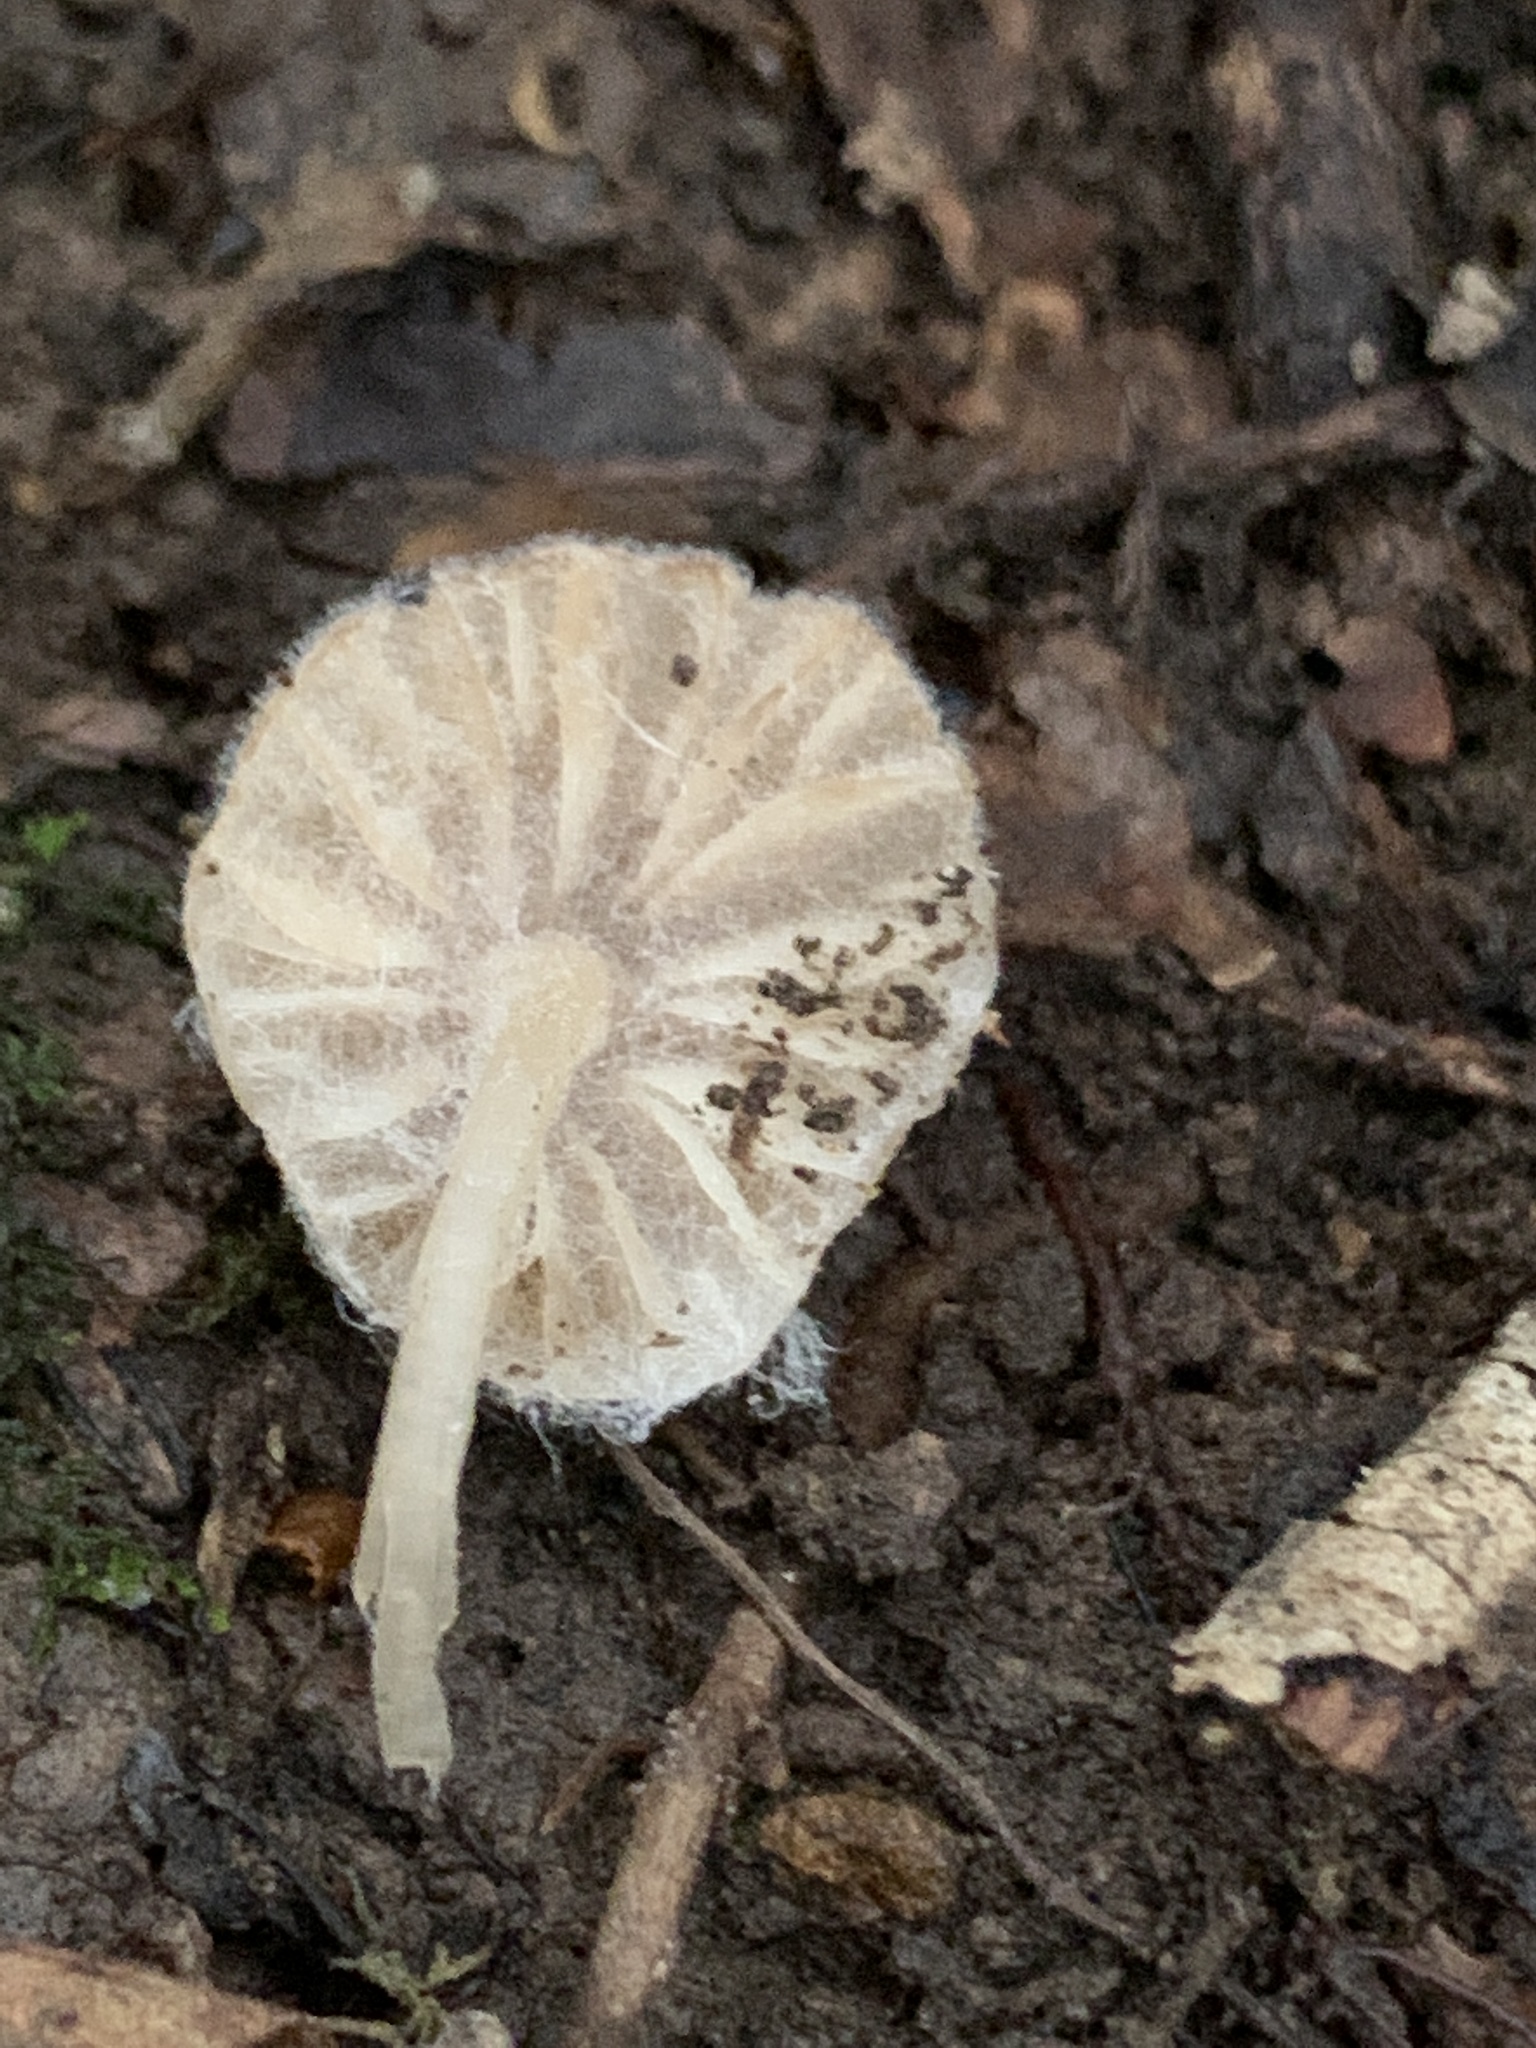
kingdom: Fungi
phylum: Basidiomycota
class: Agaricomycetes
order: Agaricales
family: Mycenaceae
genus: Mycena
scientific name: Mycena clarkeana
